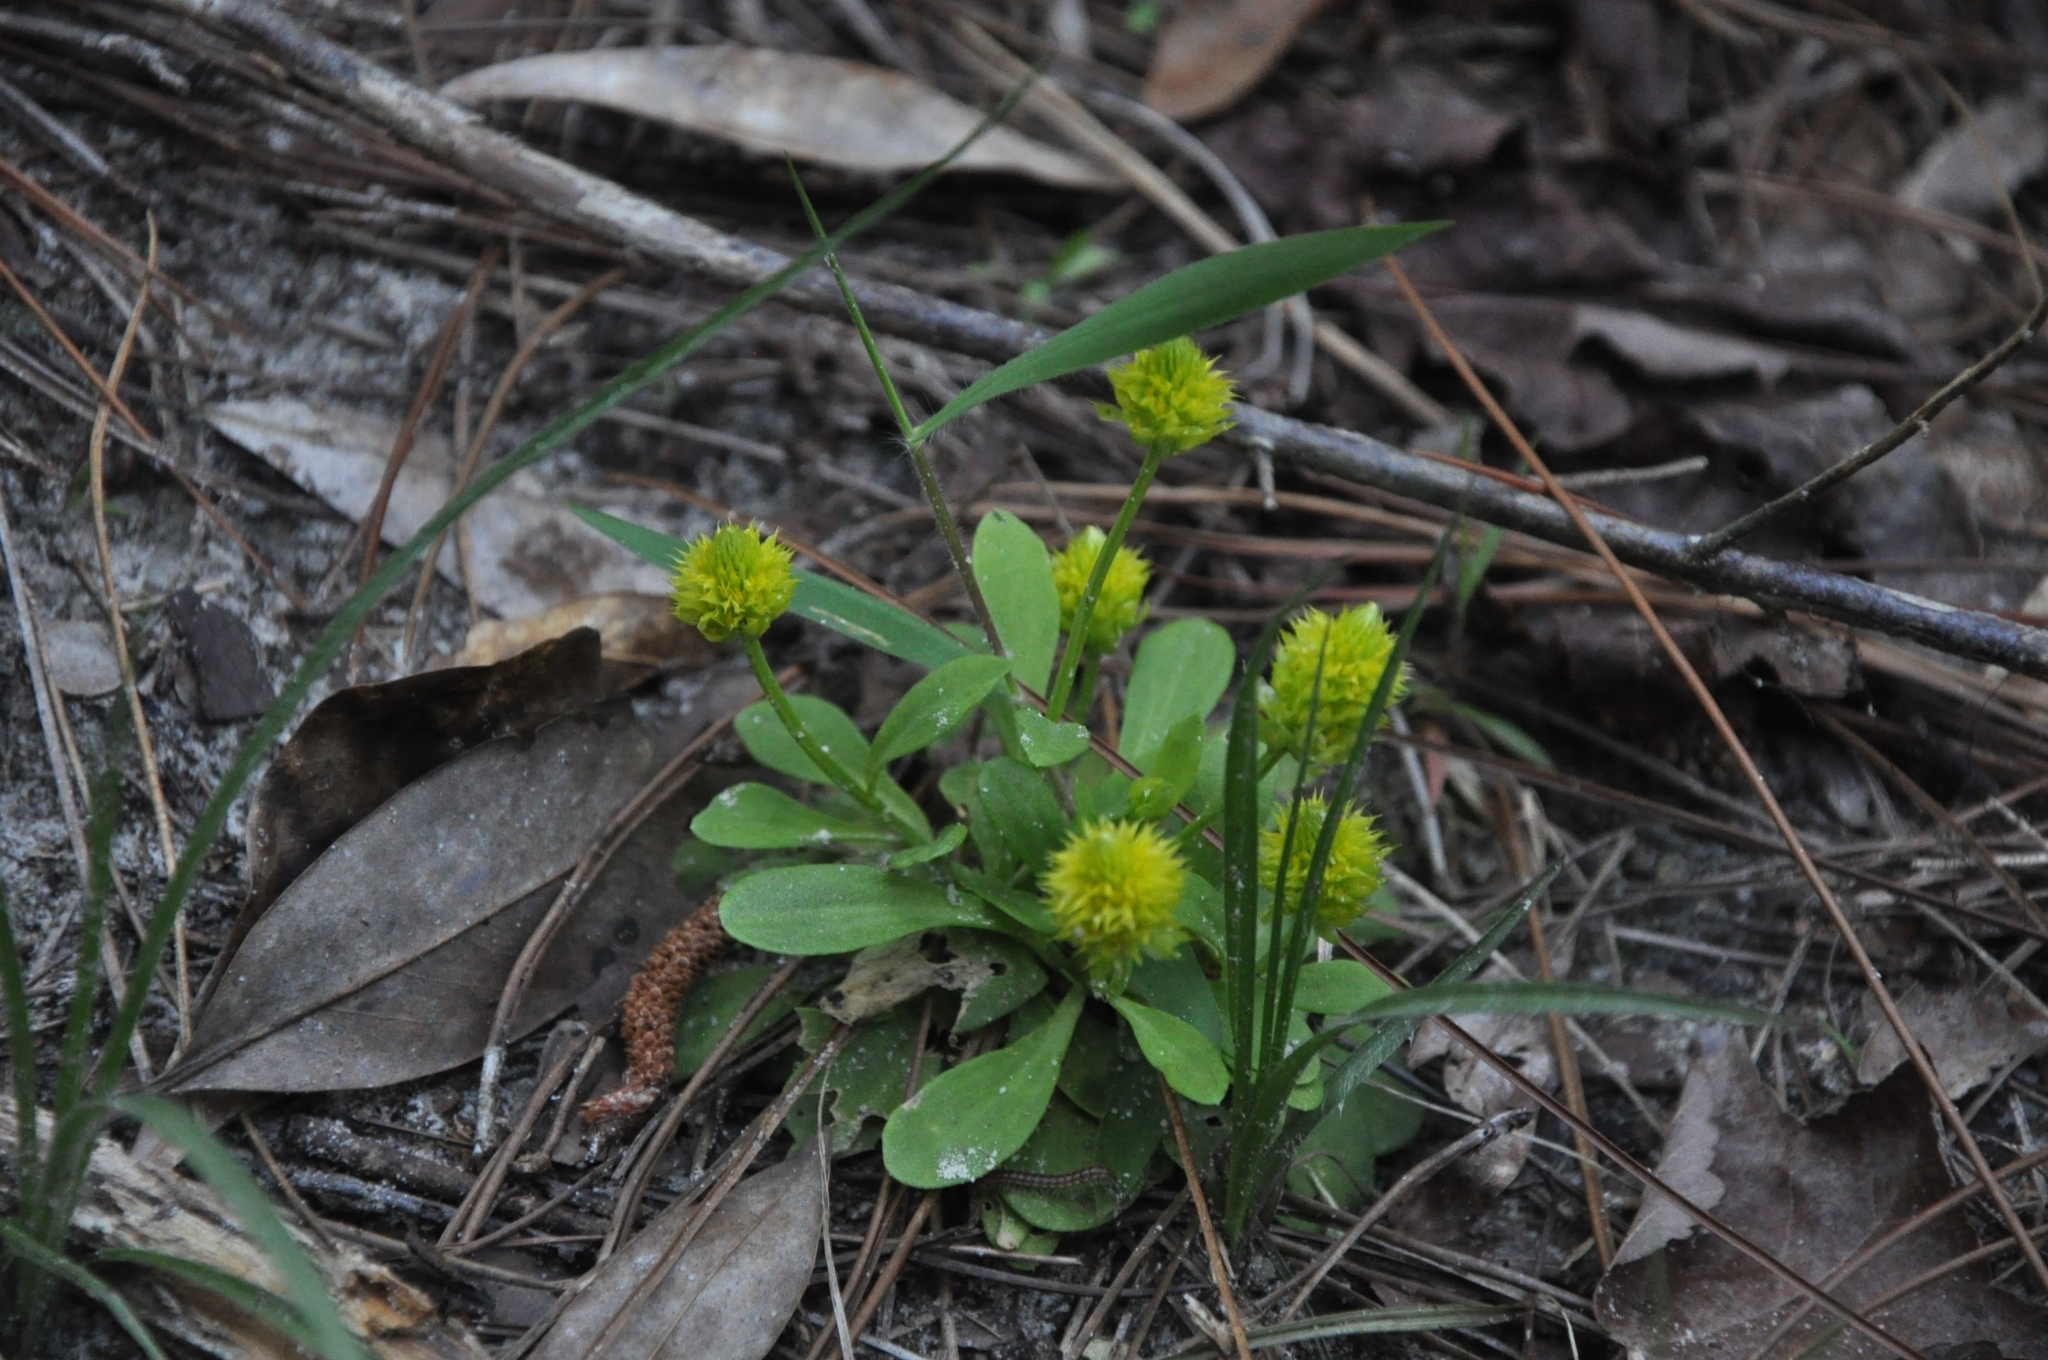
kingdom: Plantae
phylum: Tracheophyta
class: Magnoliopsida
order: Fabales
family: Polygalaceae
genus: Polygala
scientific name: Polygala nana
